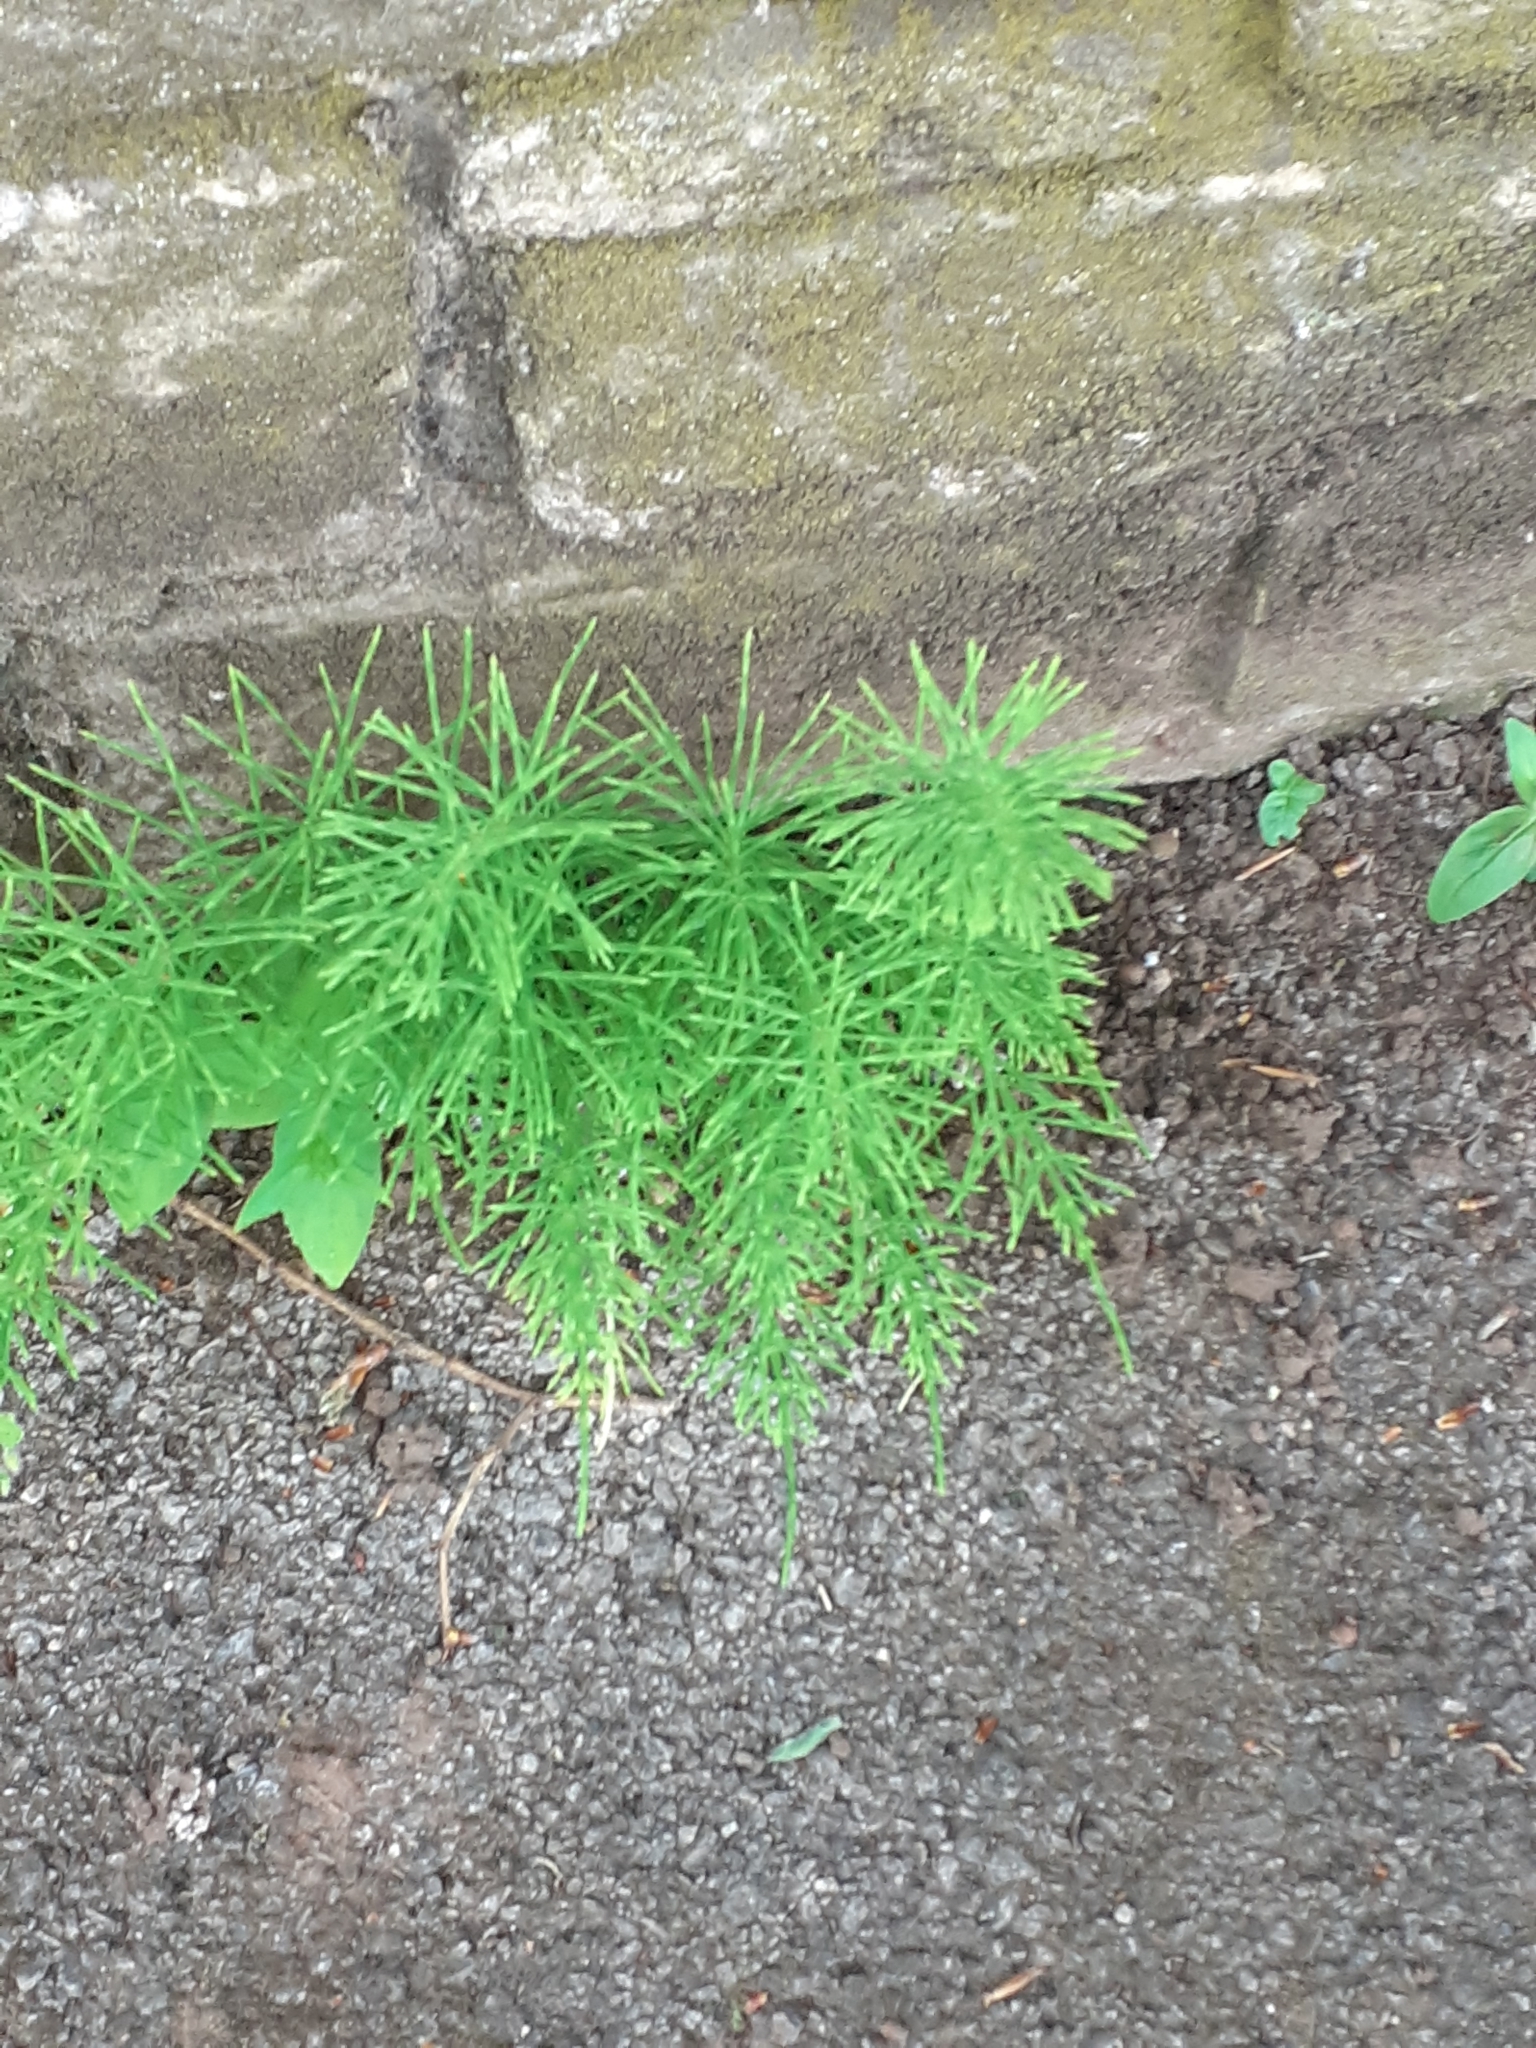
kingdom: Plantae
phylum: Tracheophyta
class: Polypodiopsida
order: Equisetales
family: Equisetaceae
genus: Equisetum
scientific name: Equisetum arvense
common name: Field horsetail
